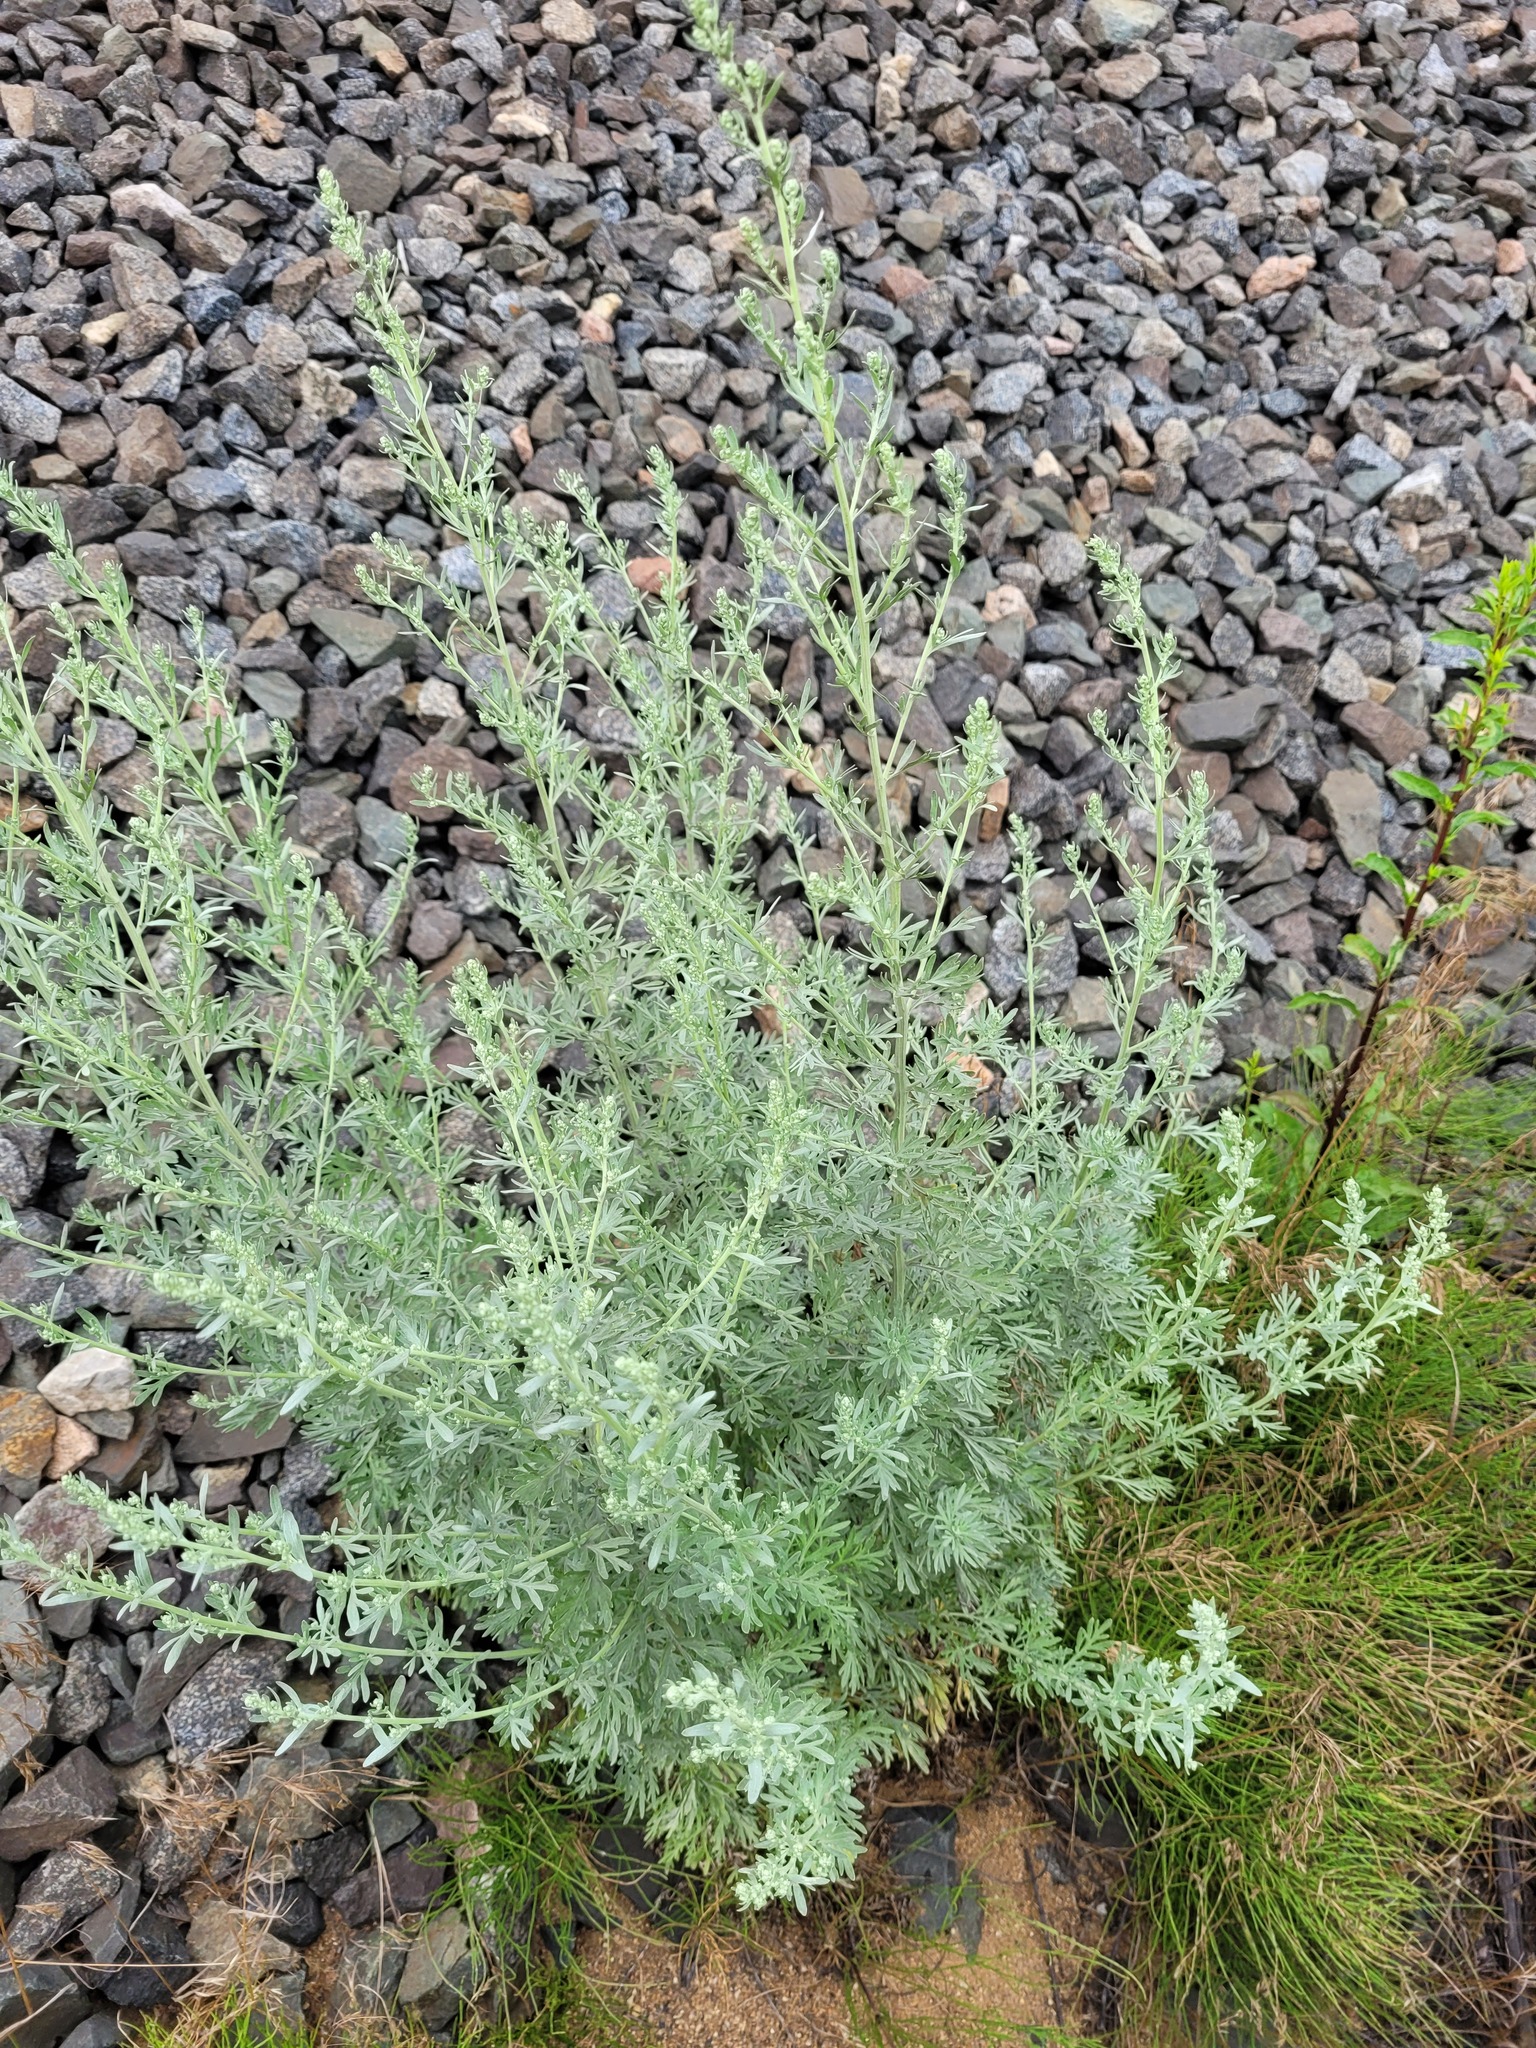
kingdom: Plantae
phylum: Tracheophyta
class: Magnoliopsida
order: Asterales
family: Asteraceae
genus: Artemisia
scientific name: Artemisia absinthium
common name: Wormwood
